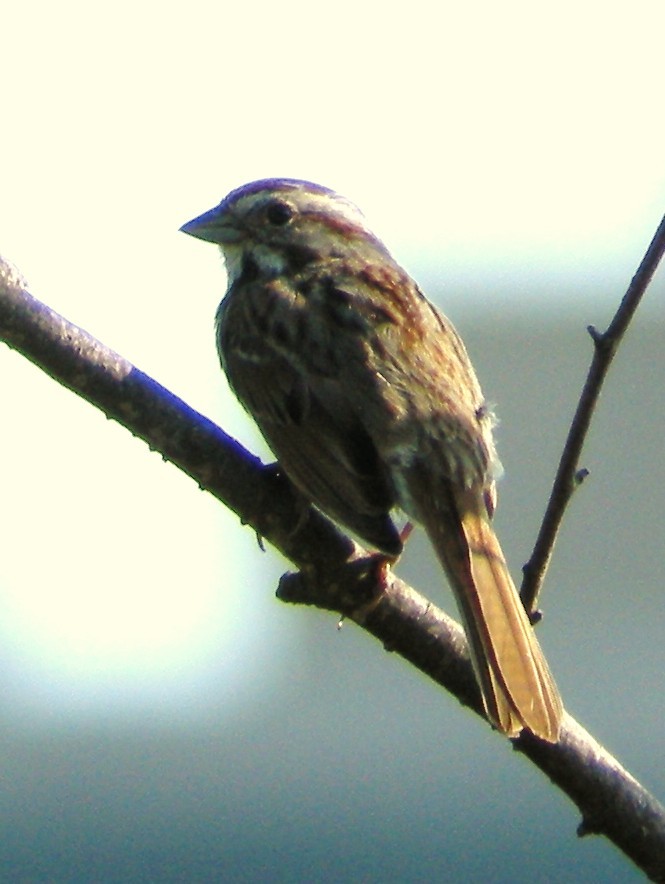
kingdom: Animalia
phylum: Chordata
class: Aves
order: Passeriformes
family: Passerellidae
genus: Melospiza
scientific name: Melospiza melodia
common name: Song sparrow
